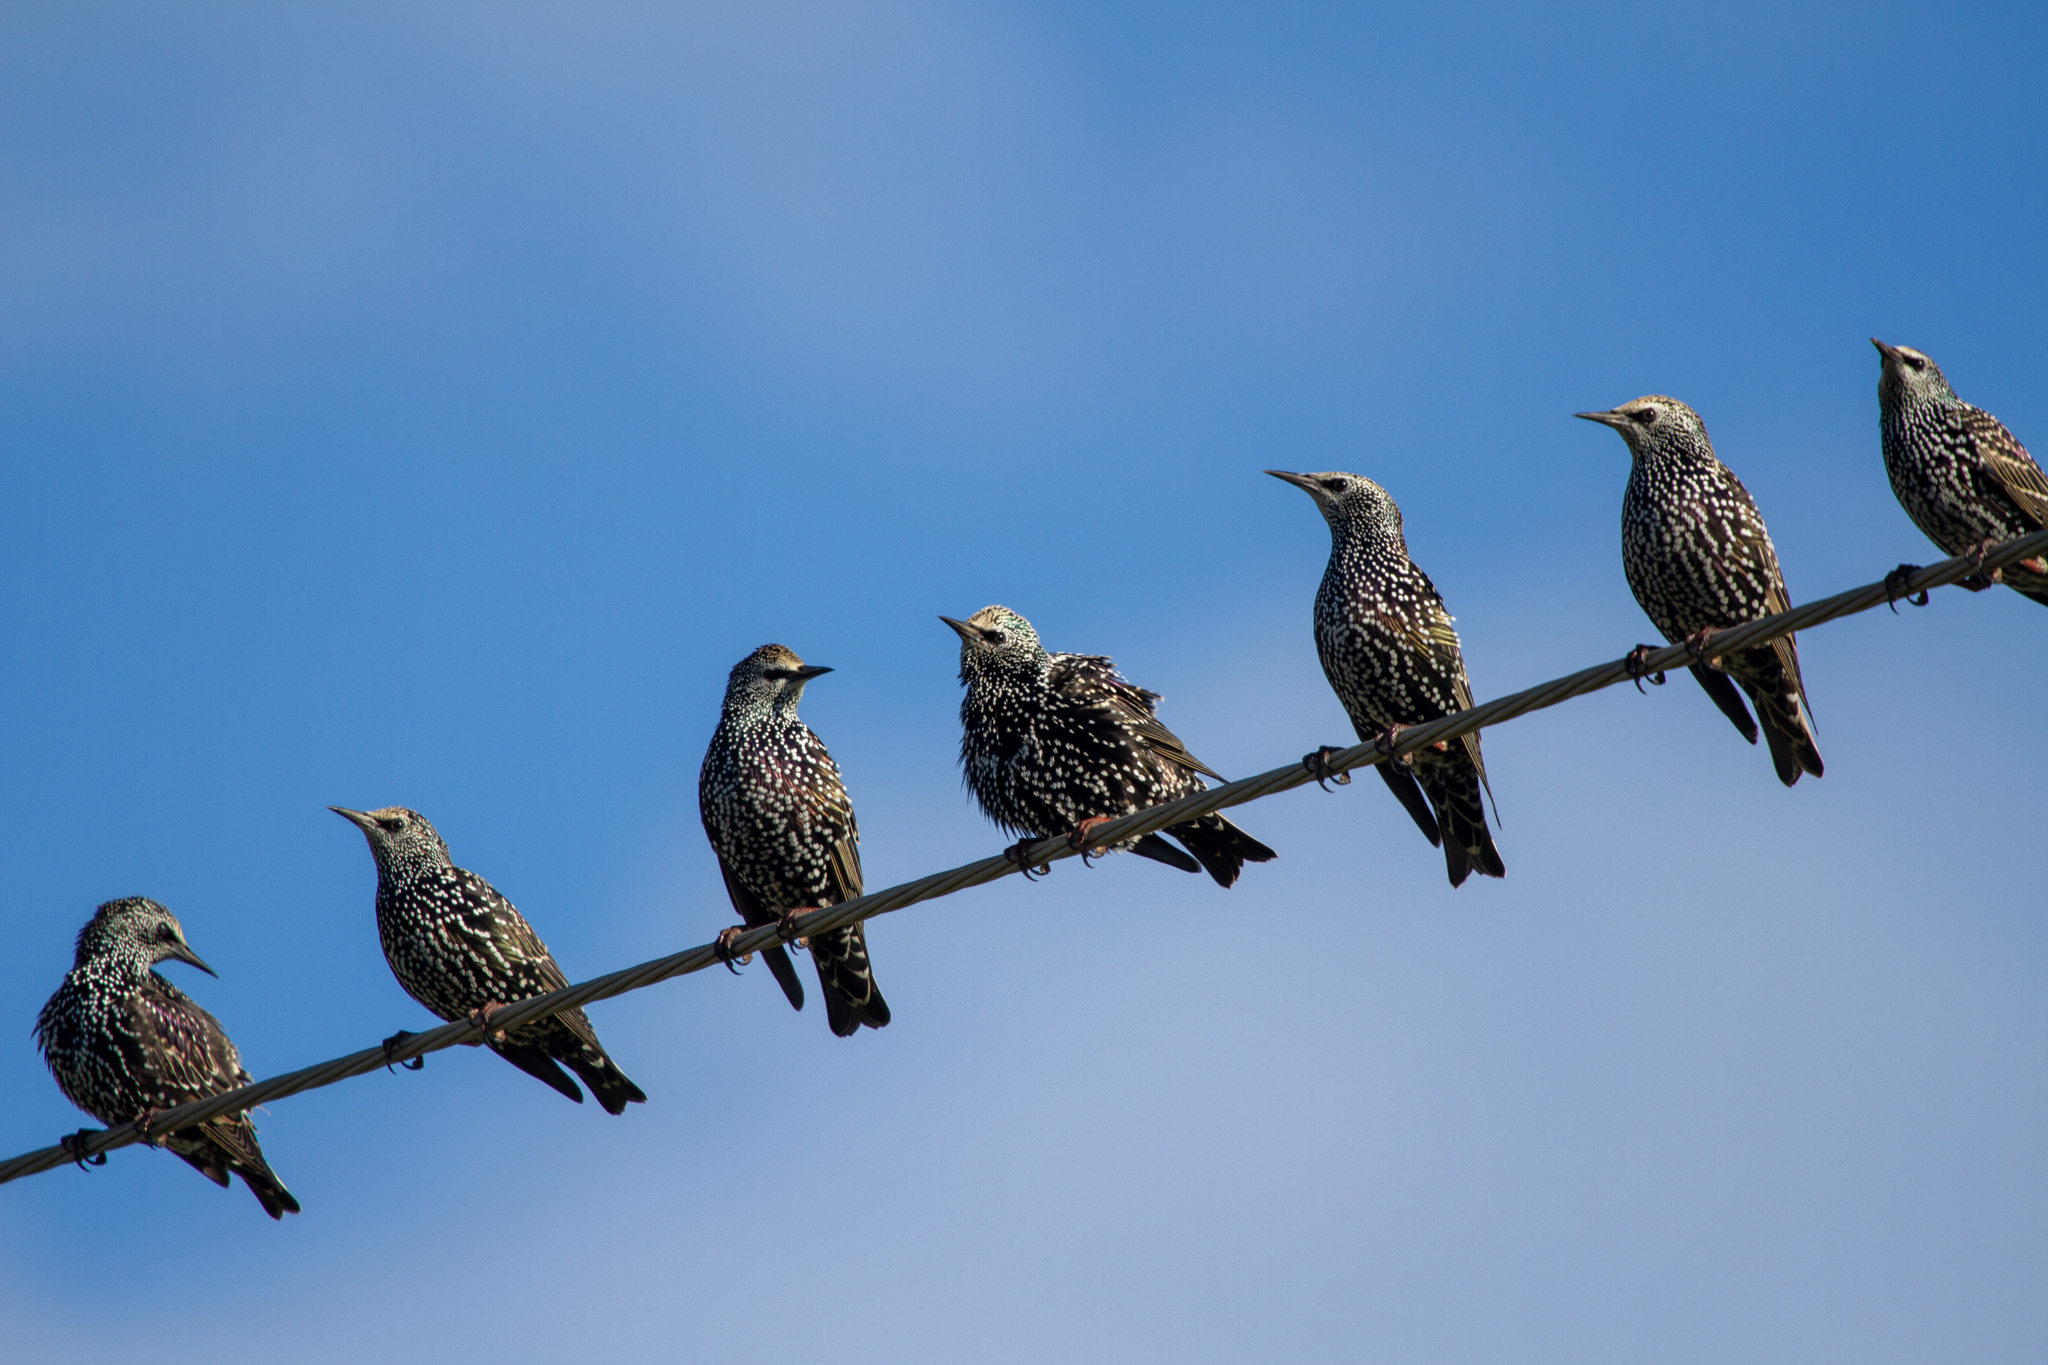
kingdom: Animalia
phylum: Chordata
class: Aves
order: Passeriformes
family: Sturnidae
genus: Sturnus
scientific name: Sturnus vulgaris
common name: Common starling
